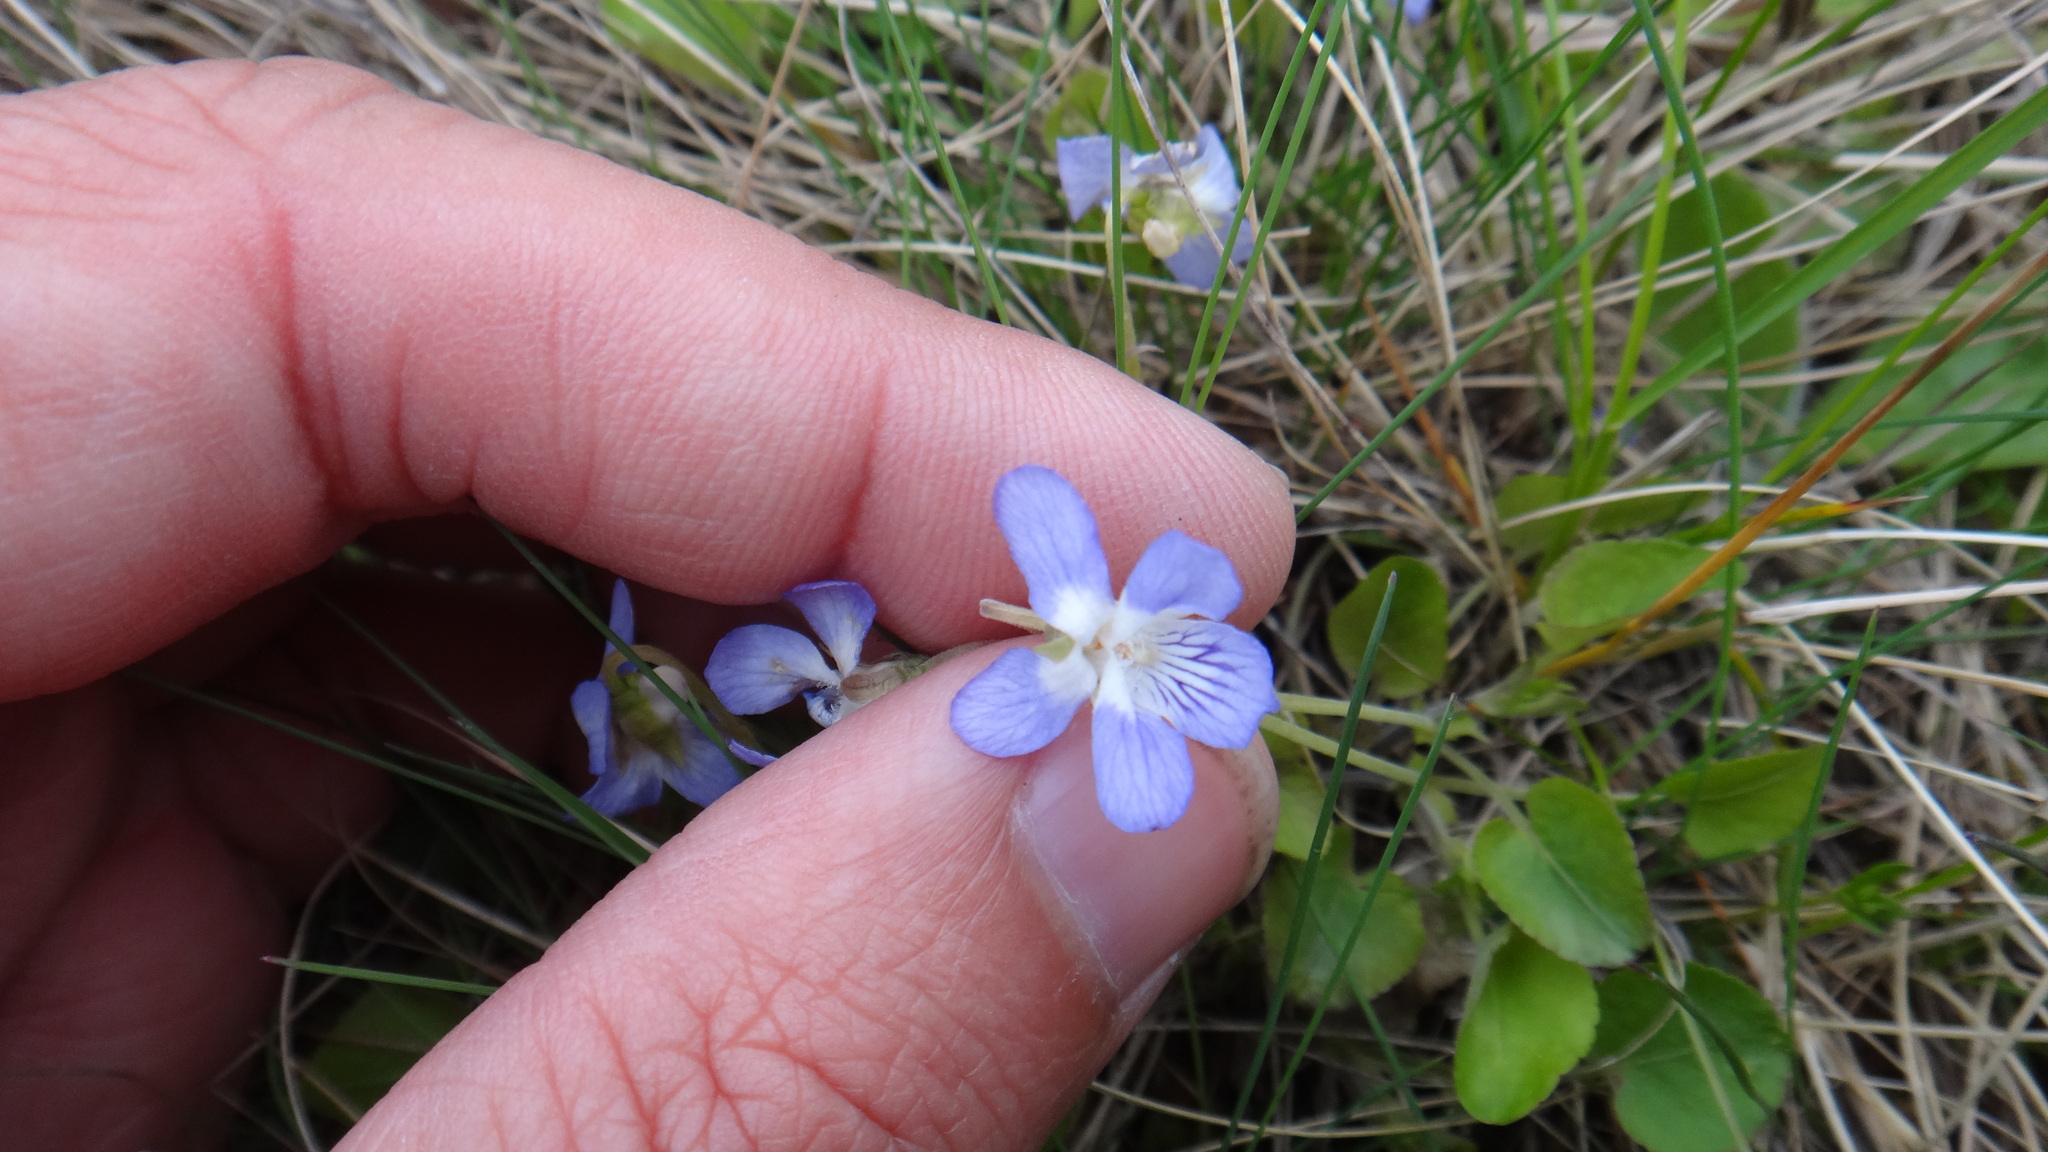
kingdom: Plantae
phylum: Tracheophyta
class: Magnoliopsida
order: Malpighiales
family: Violaceae
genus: Viola
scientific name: Viola rupestris
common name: Teesdale violet
